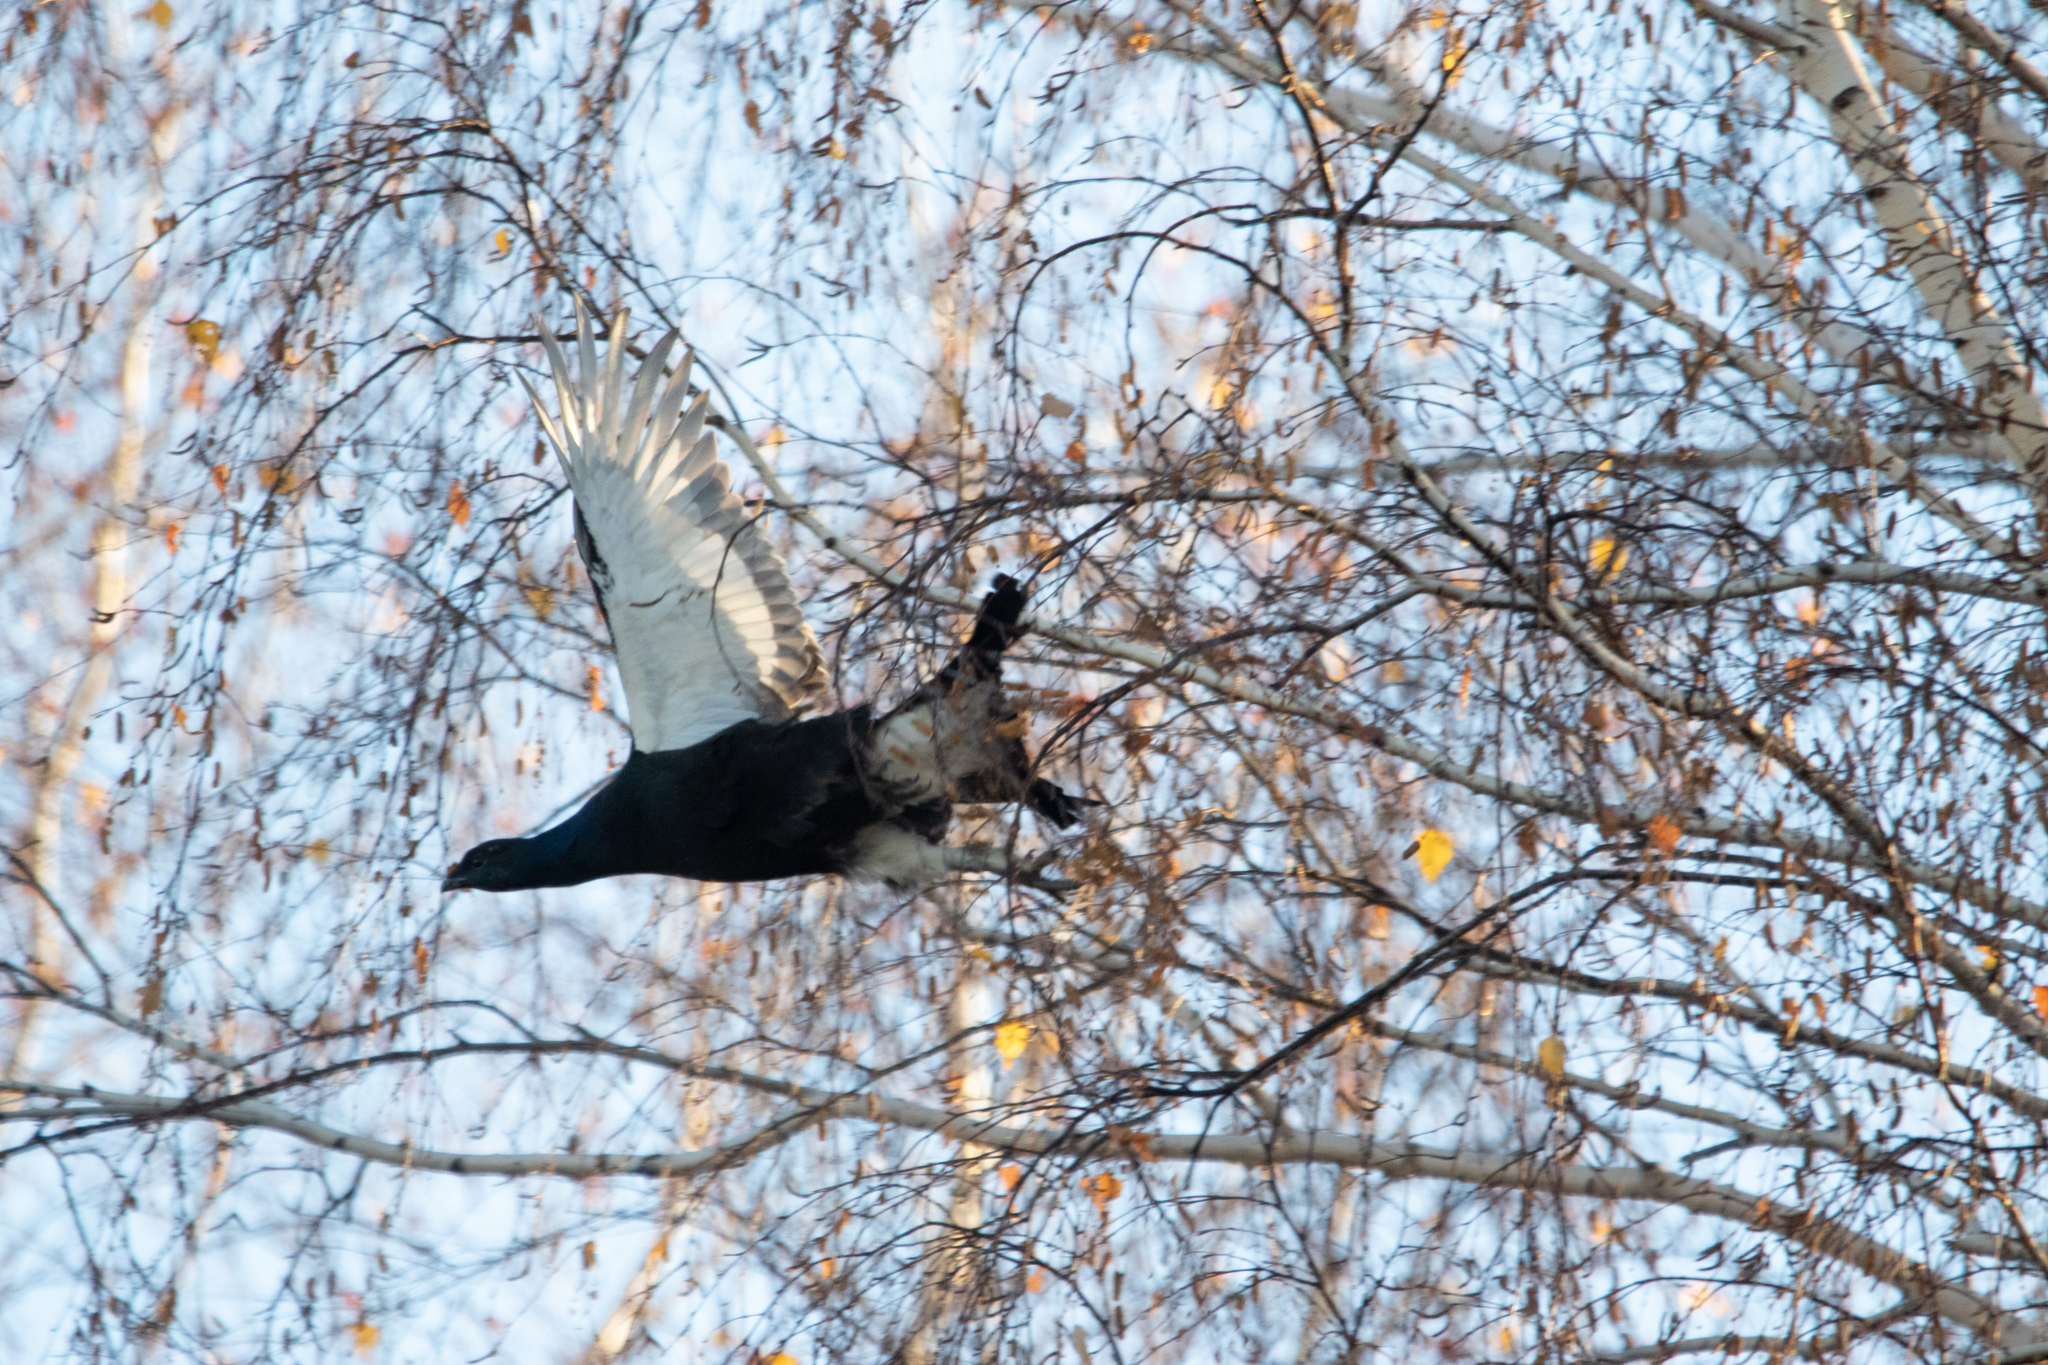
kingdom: Animalia
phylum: Chordata
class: Aves
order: Galliformes
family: Phasianidae
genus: Lyrurus
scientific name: Lyrurus tetrix
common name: Black grouse
